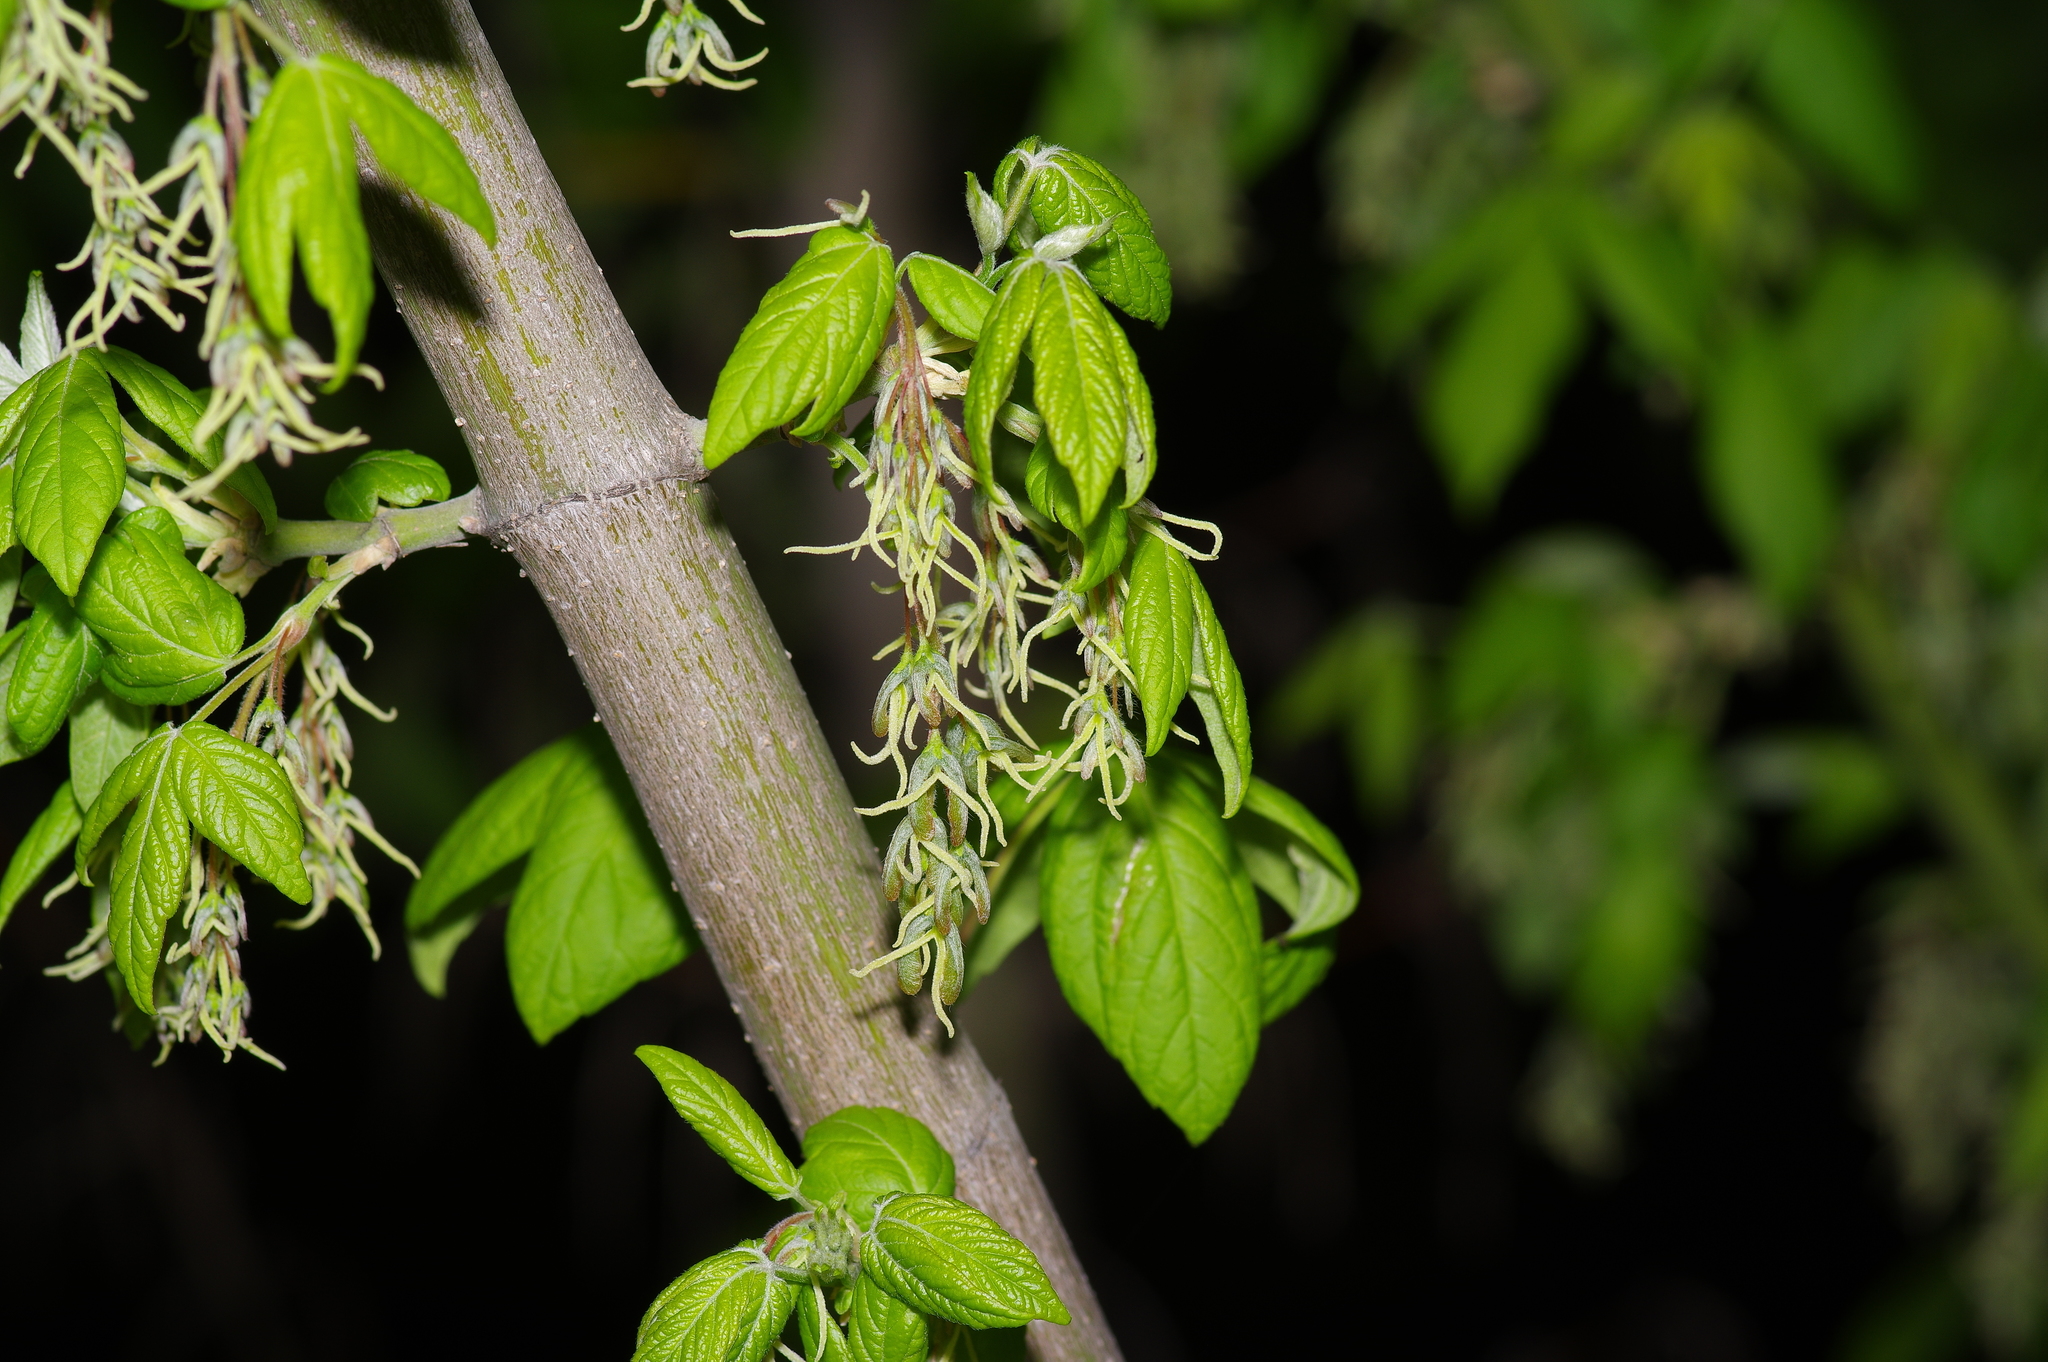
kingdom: Plantae
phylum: Tracheophyta
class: Magnoliopsida
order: Sapindales
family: Sapindaceae
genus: Acer
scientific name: Acer negundo
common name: Ashleaf maple
